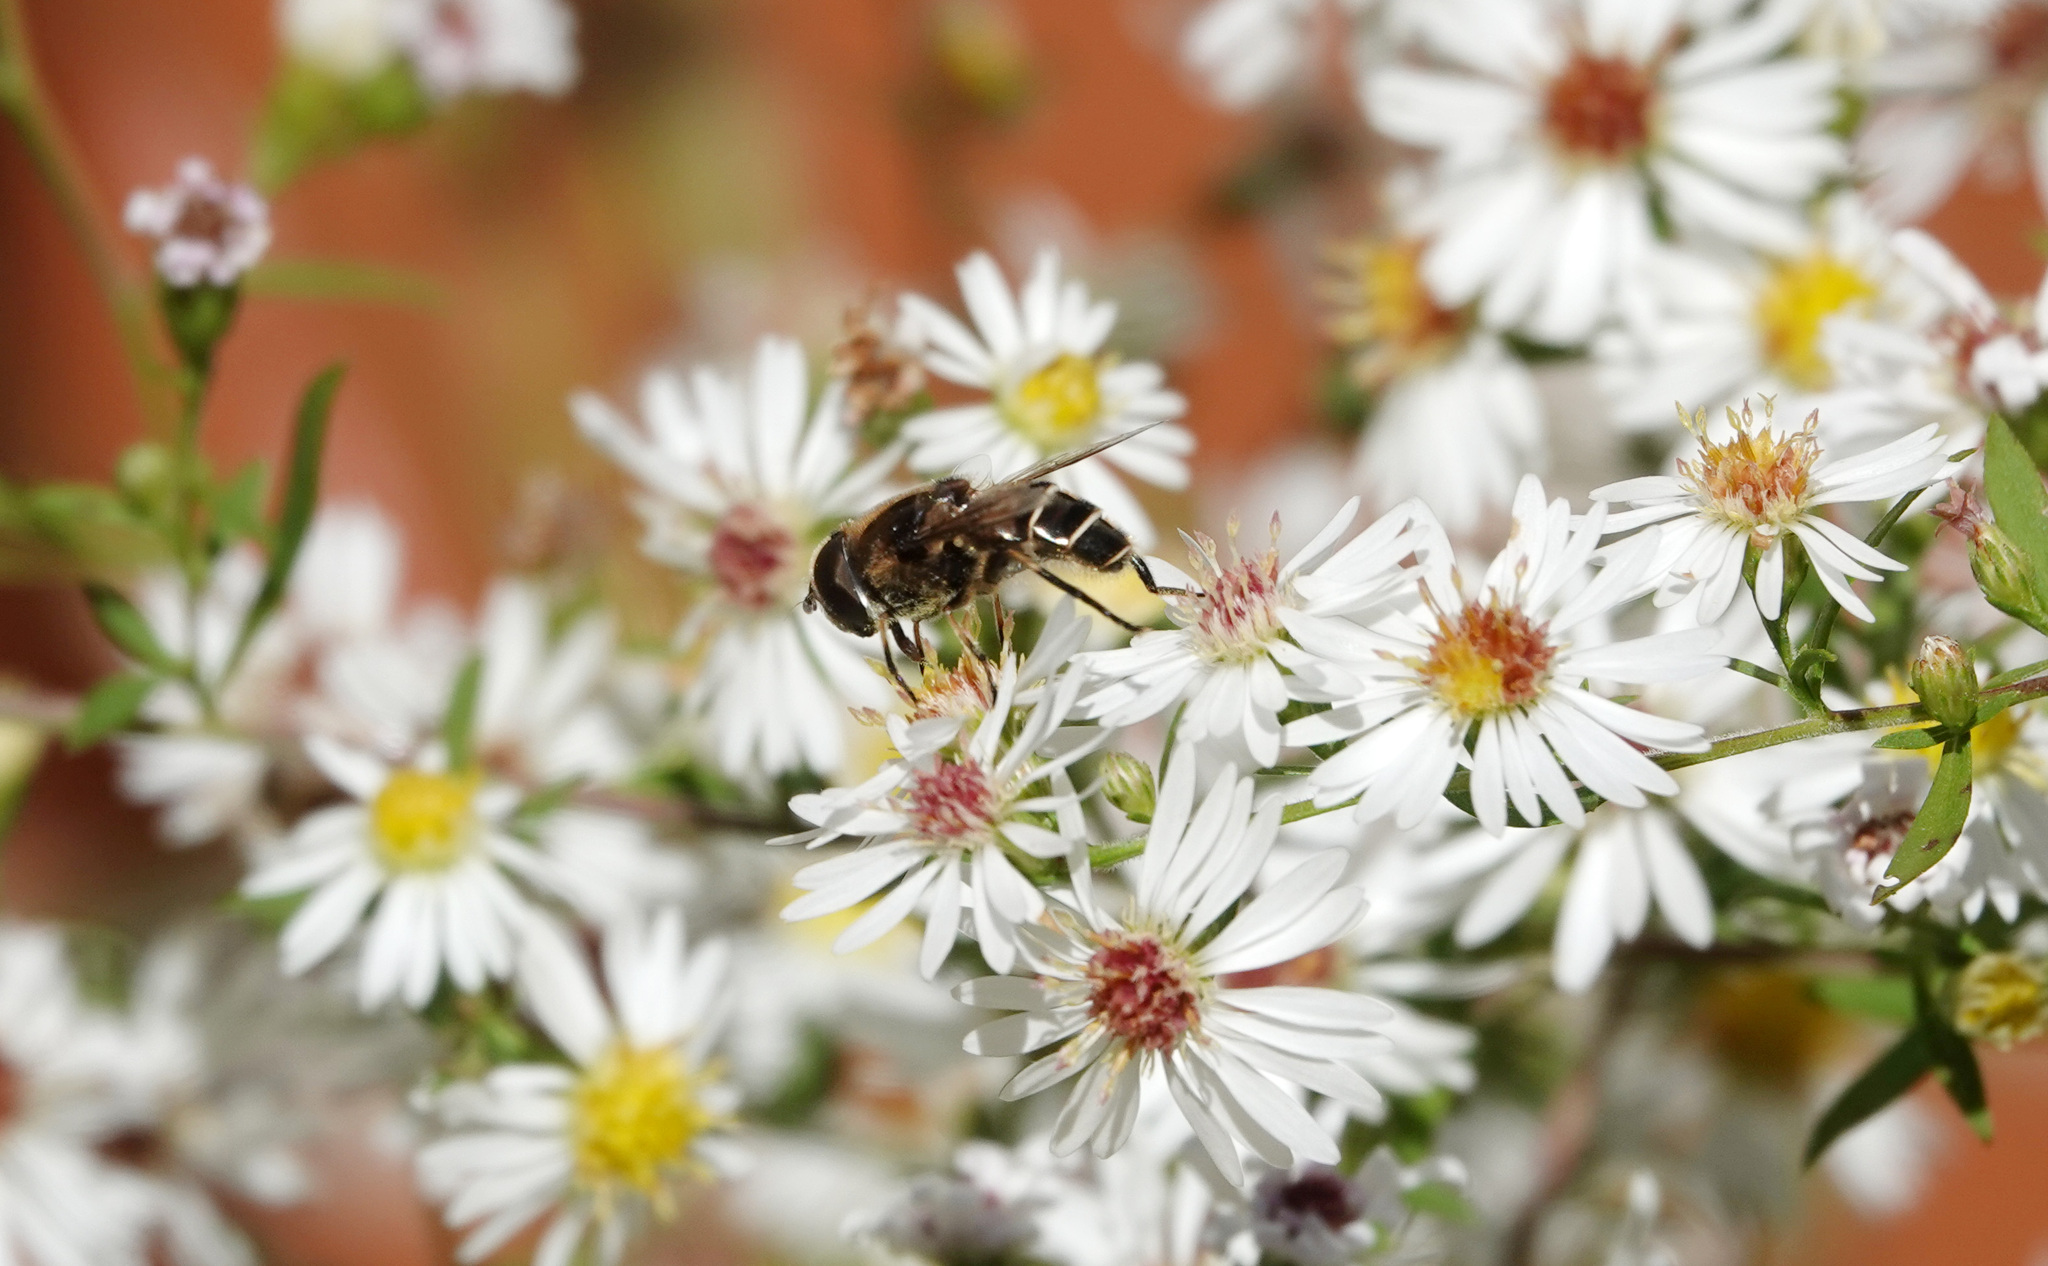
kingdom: Animalia
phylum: Arthropoda
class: Insecta
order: Diptera
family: Syrphidae
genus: Eristalis
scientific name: Eristalis dimidiata
